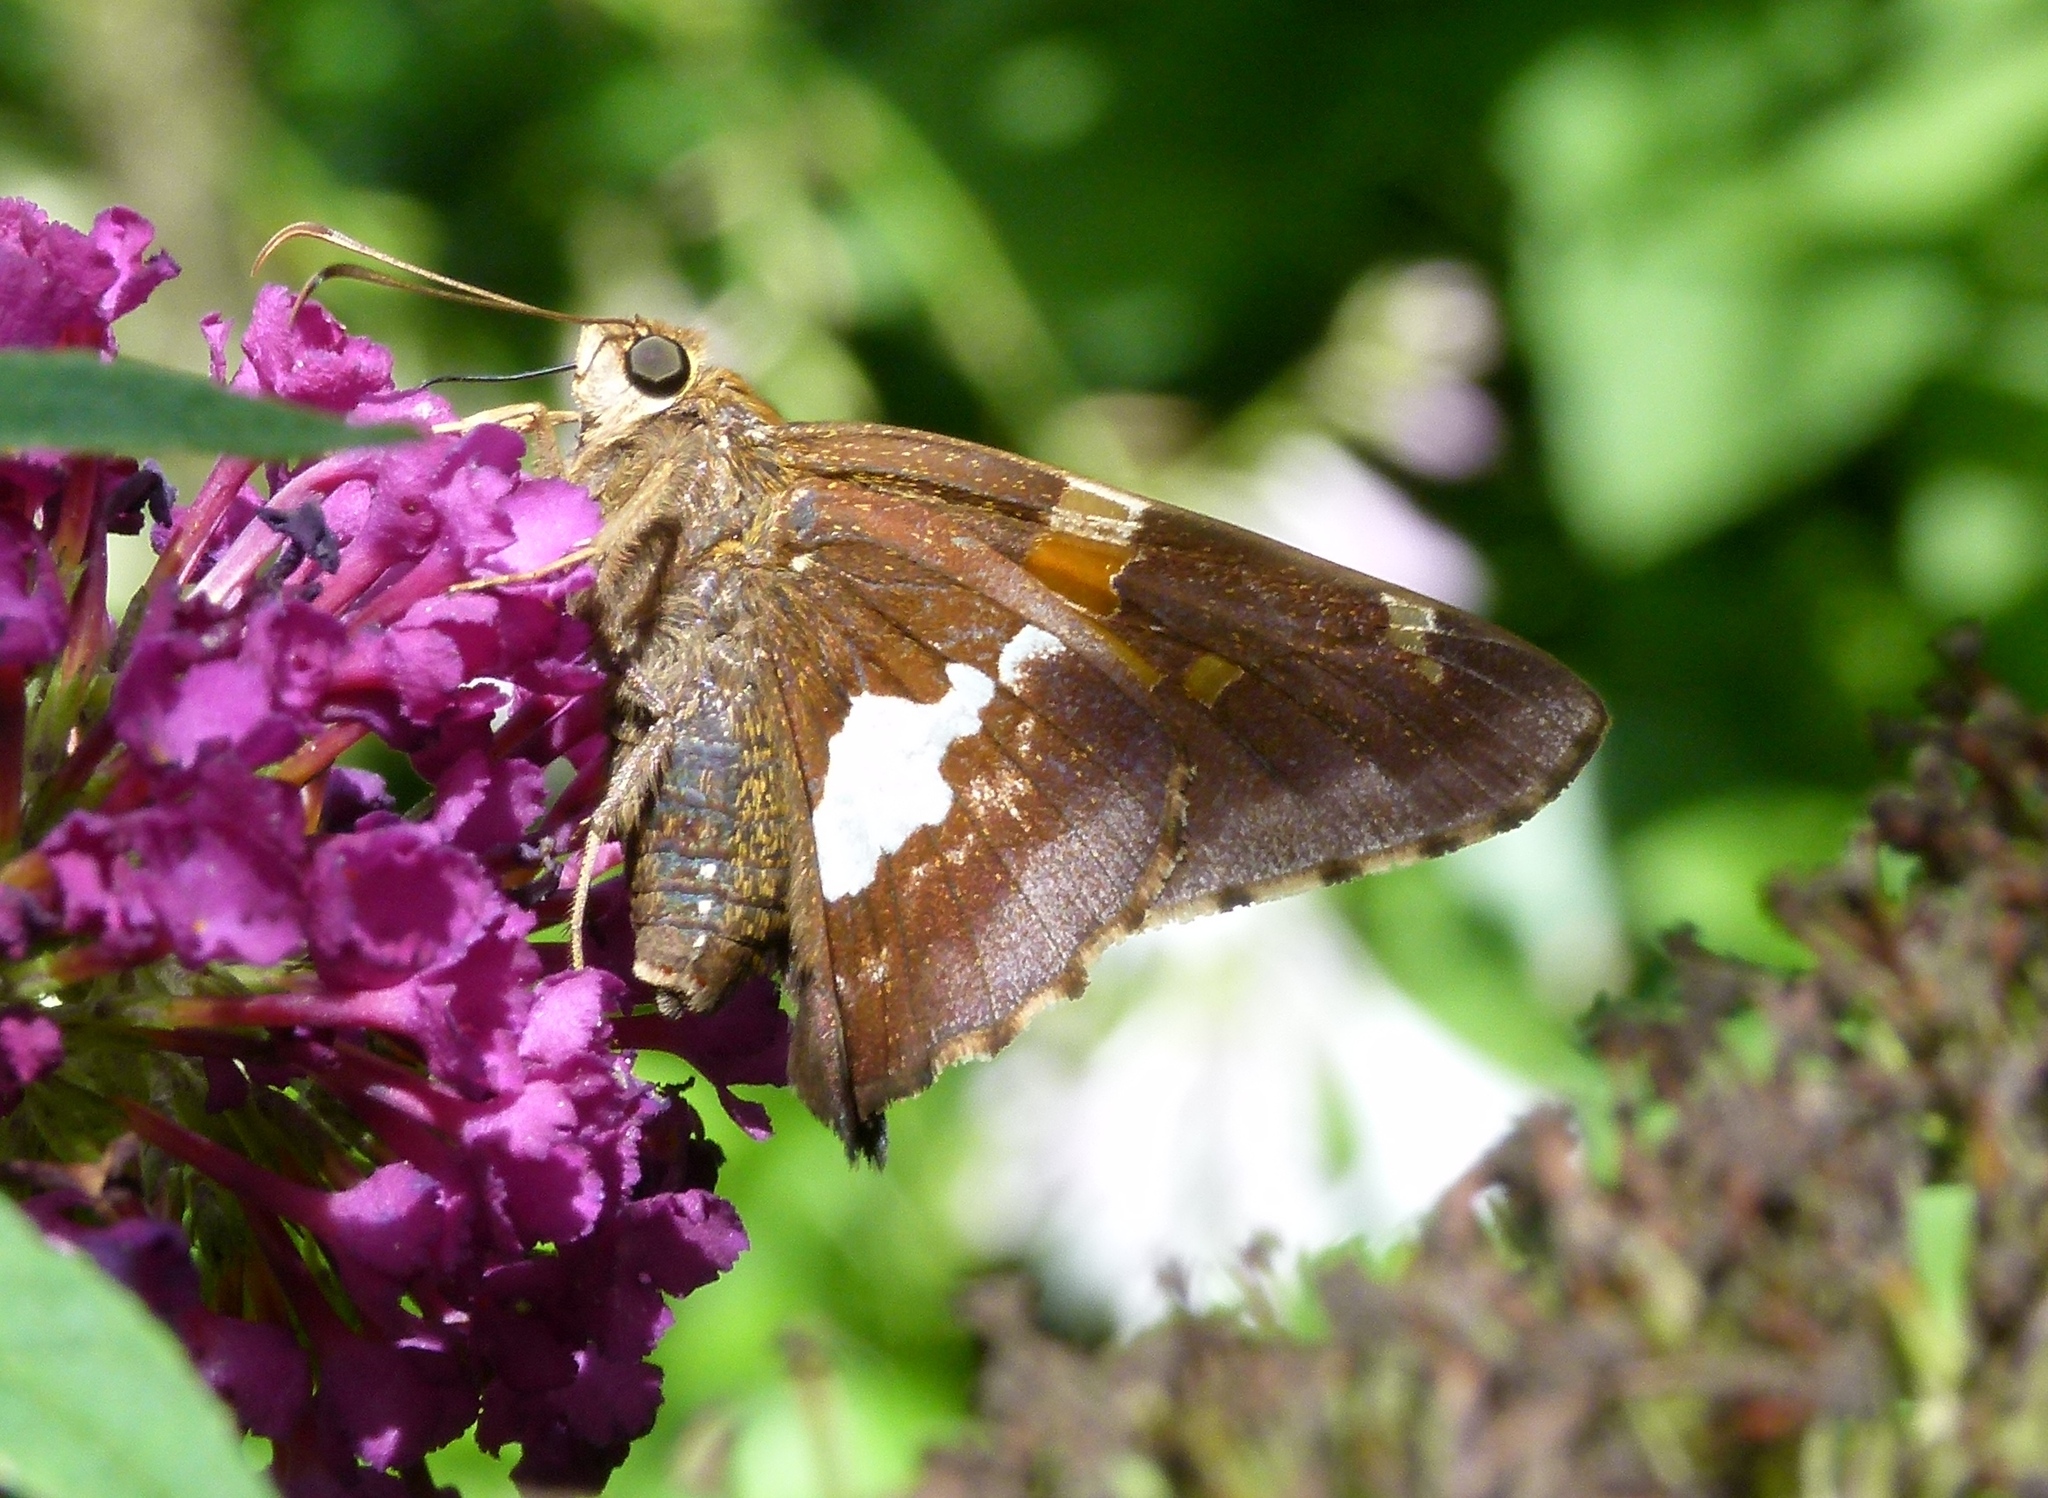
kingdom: Animalia
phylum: Arthropoda
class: Insecta
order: Lepidoptera
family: Hesperiidae
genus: Epargyreus
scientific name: Epargyreus clarus
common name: Silver-spotted skipper
